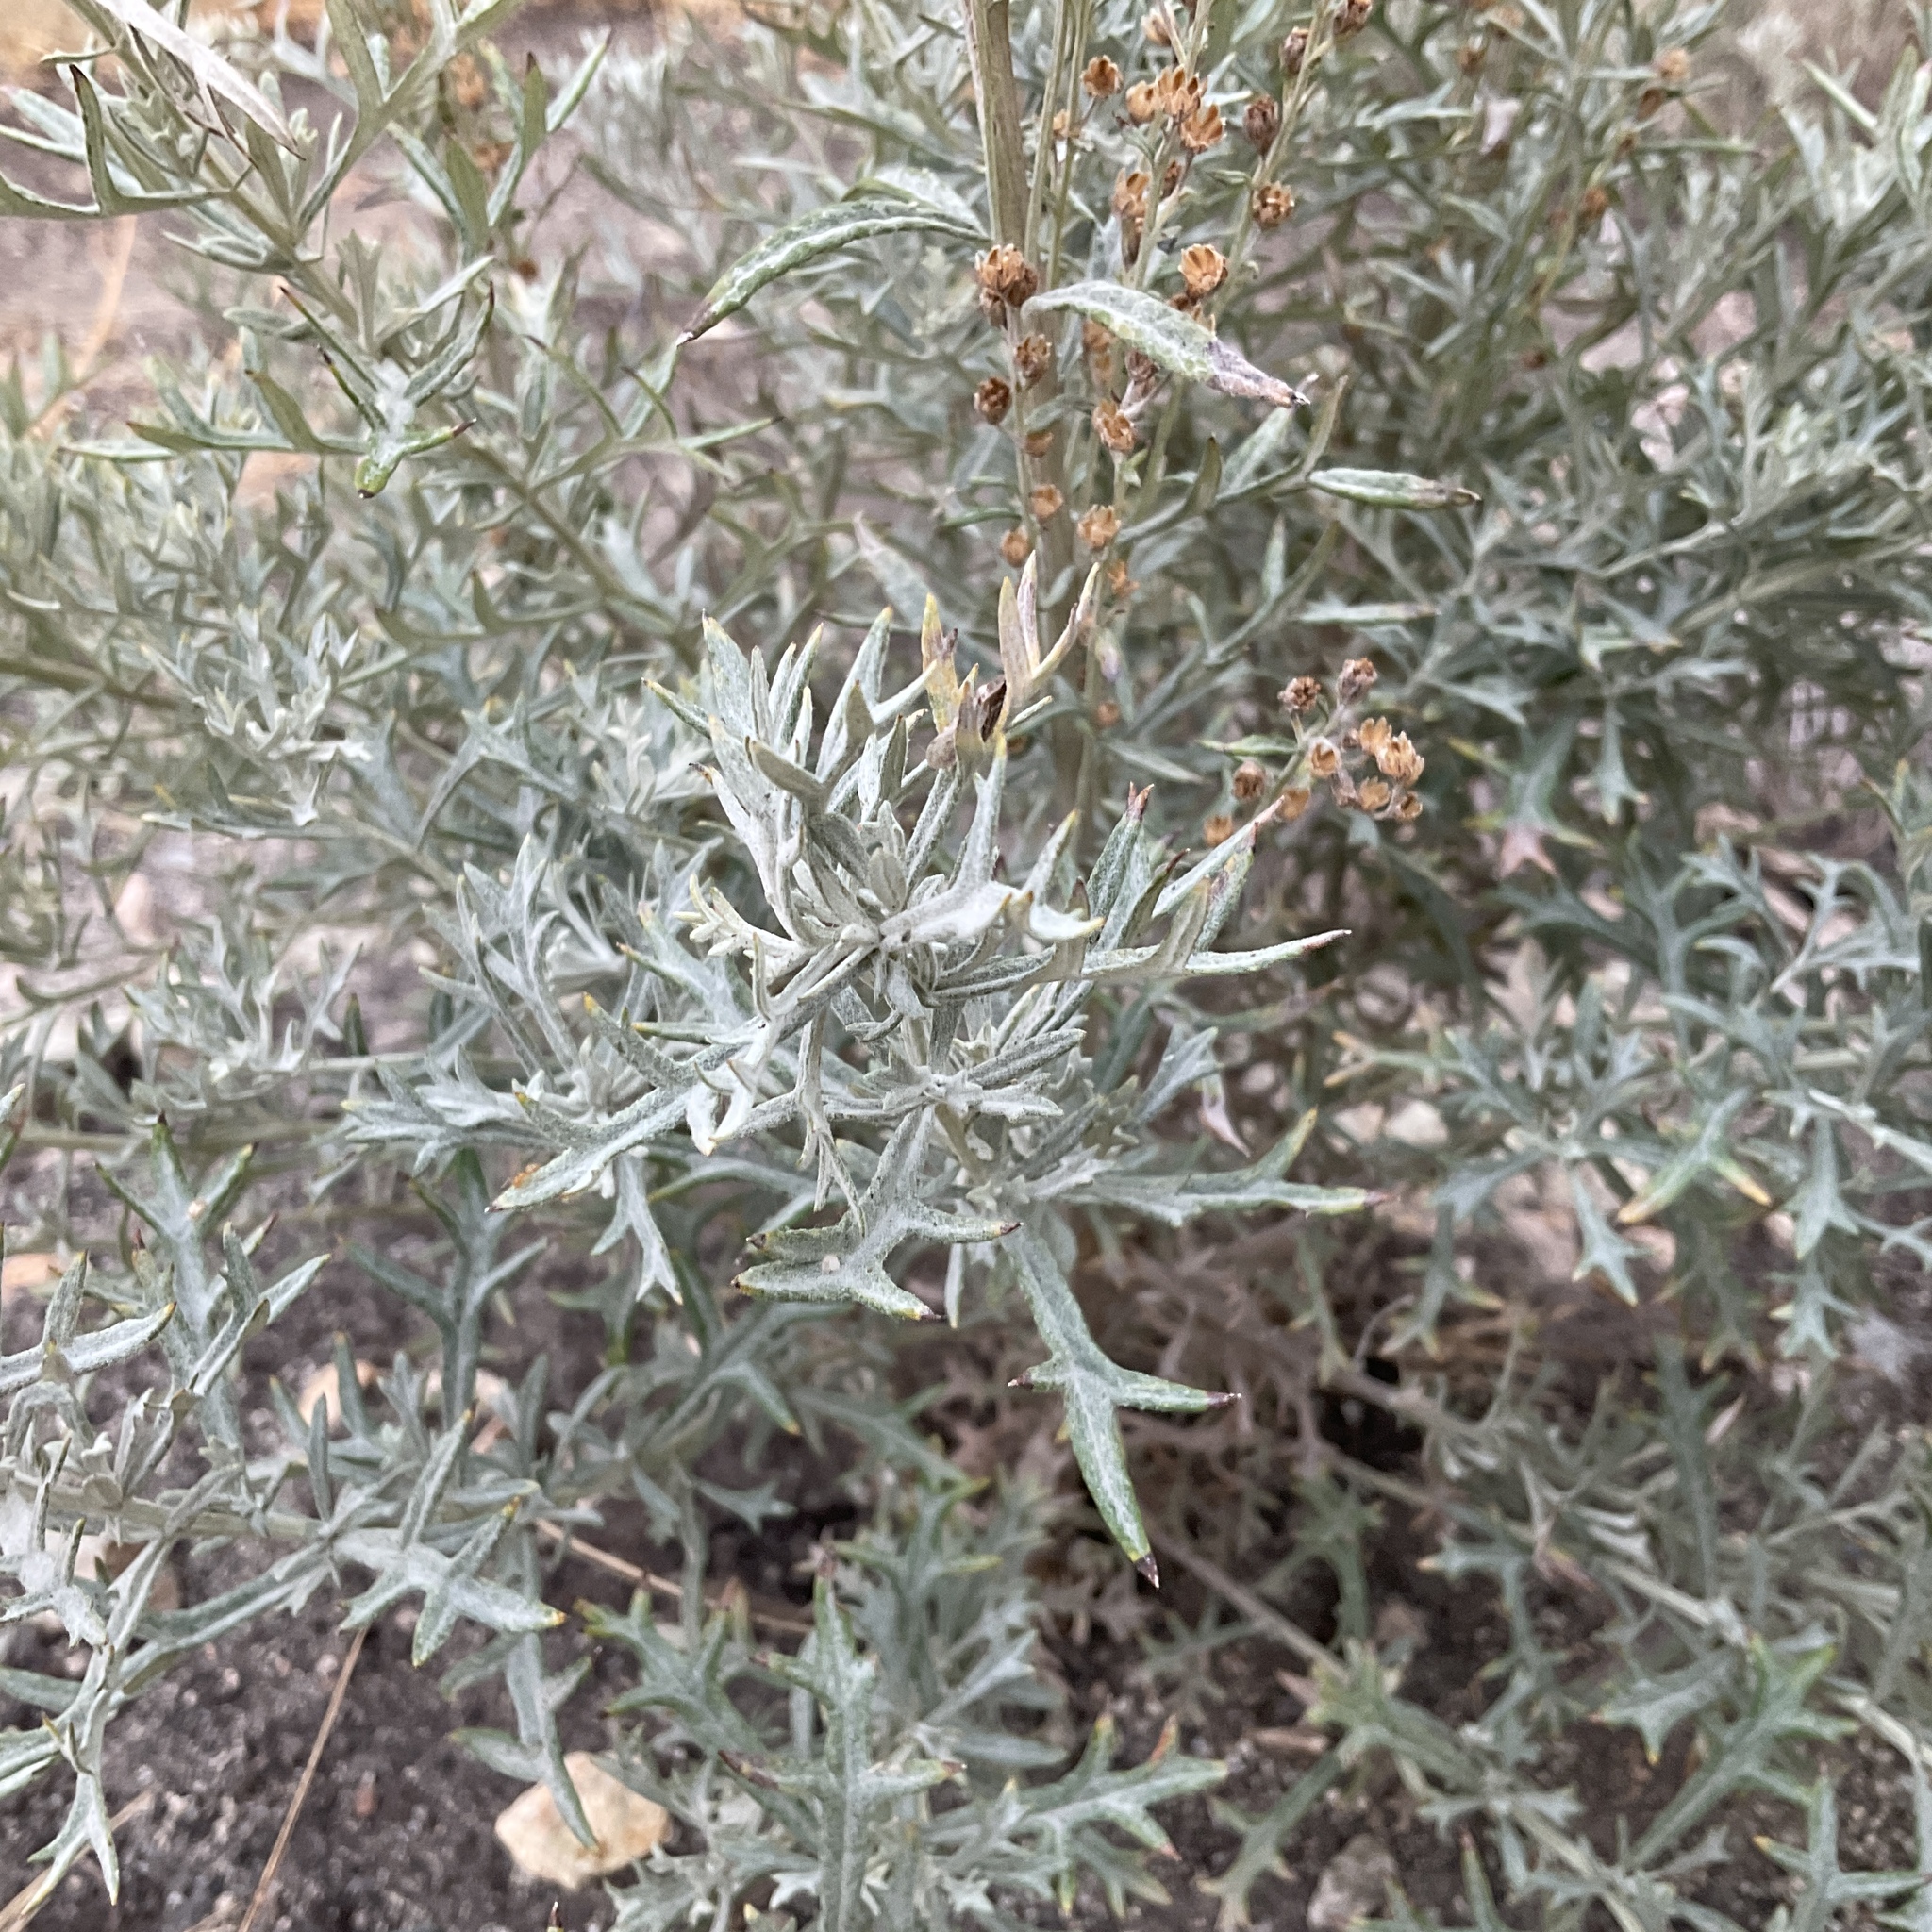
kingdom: Plantae
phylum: Tracheophyta
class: Magnoliopsida
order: Asterales
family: Asteraceae
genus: Artemisia
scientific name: Artemisia ludoviciana
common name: Western mugwort
